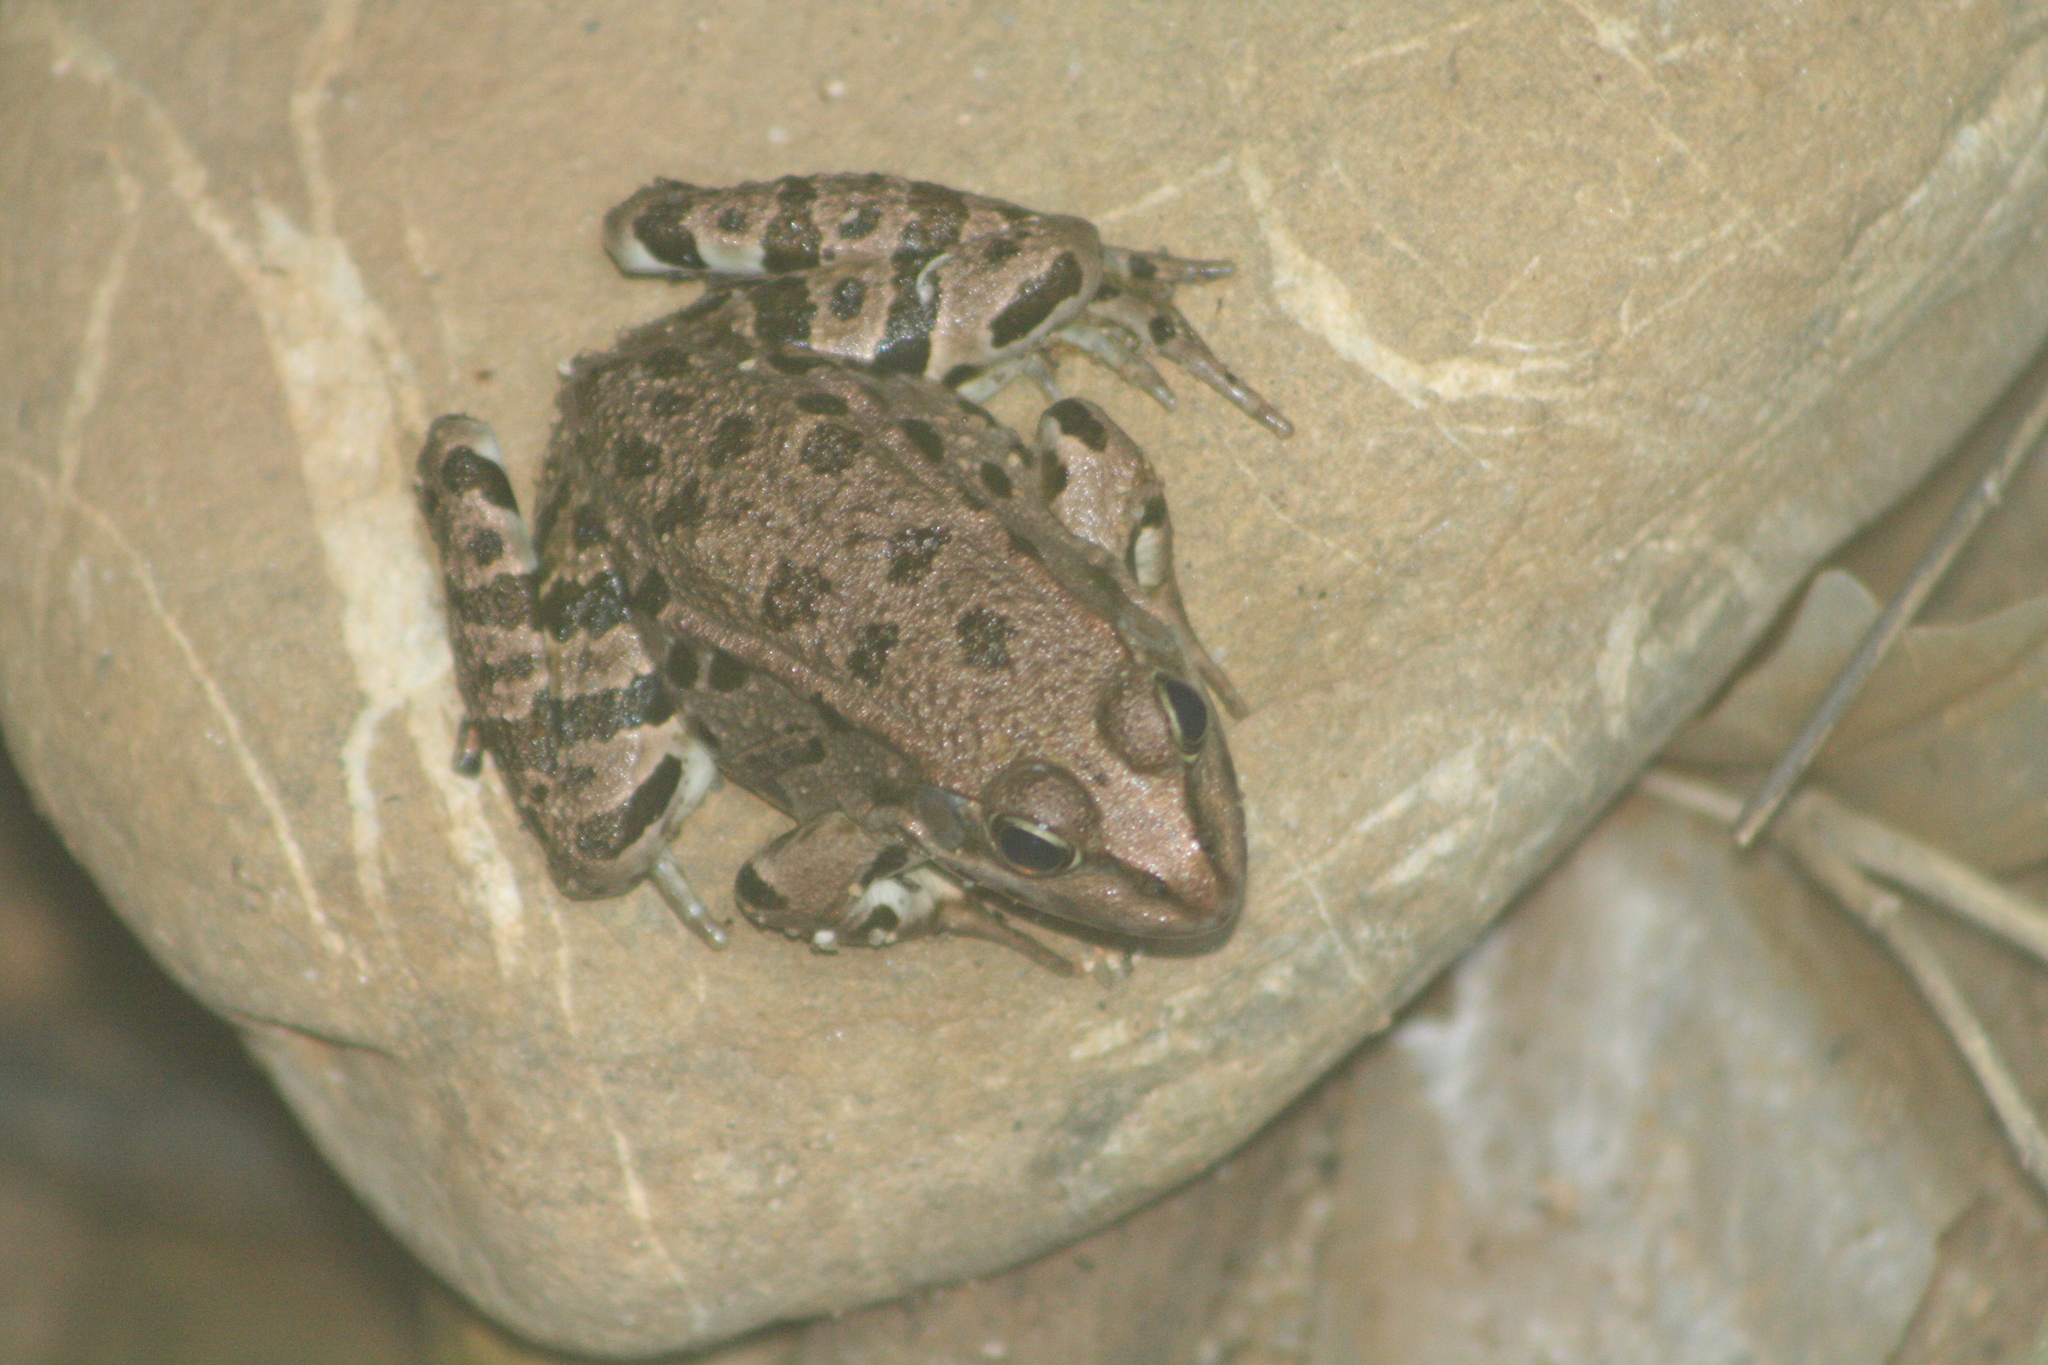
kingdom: Animalia
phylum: Chordata
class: Amphibia
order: Anura
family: Ranidae
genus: Pelophylax
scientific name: Pelophylax ridibundus
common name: Marsh frog
